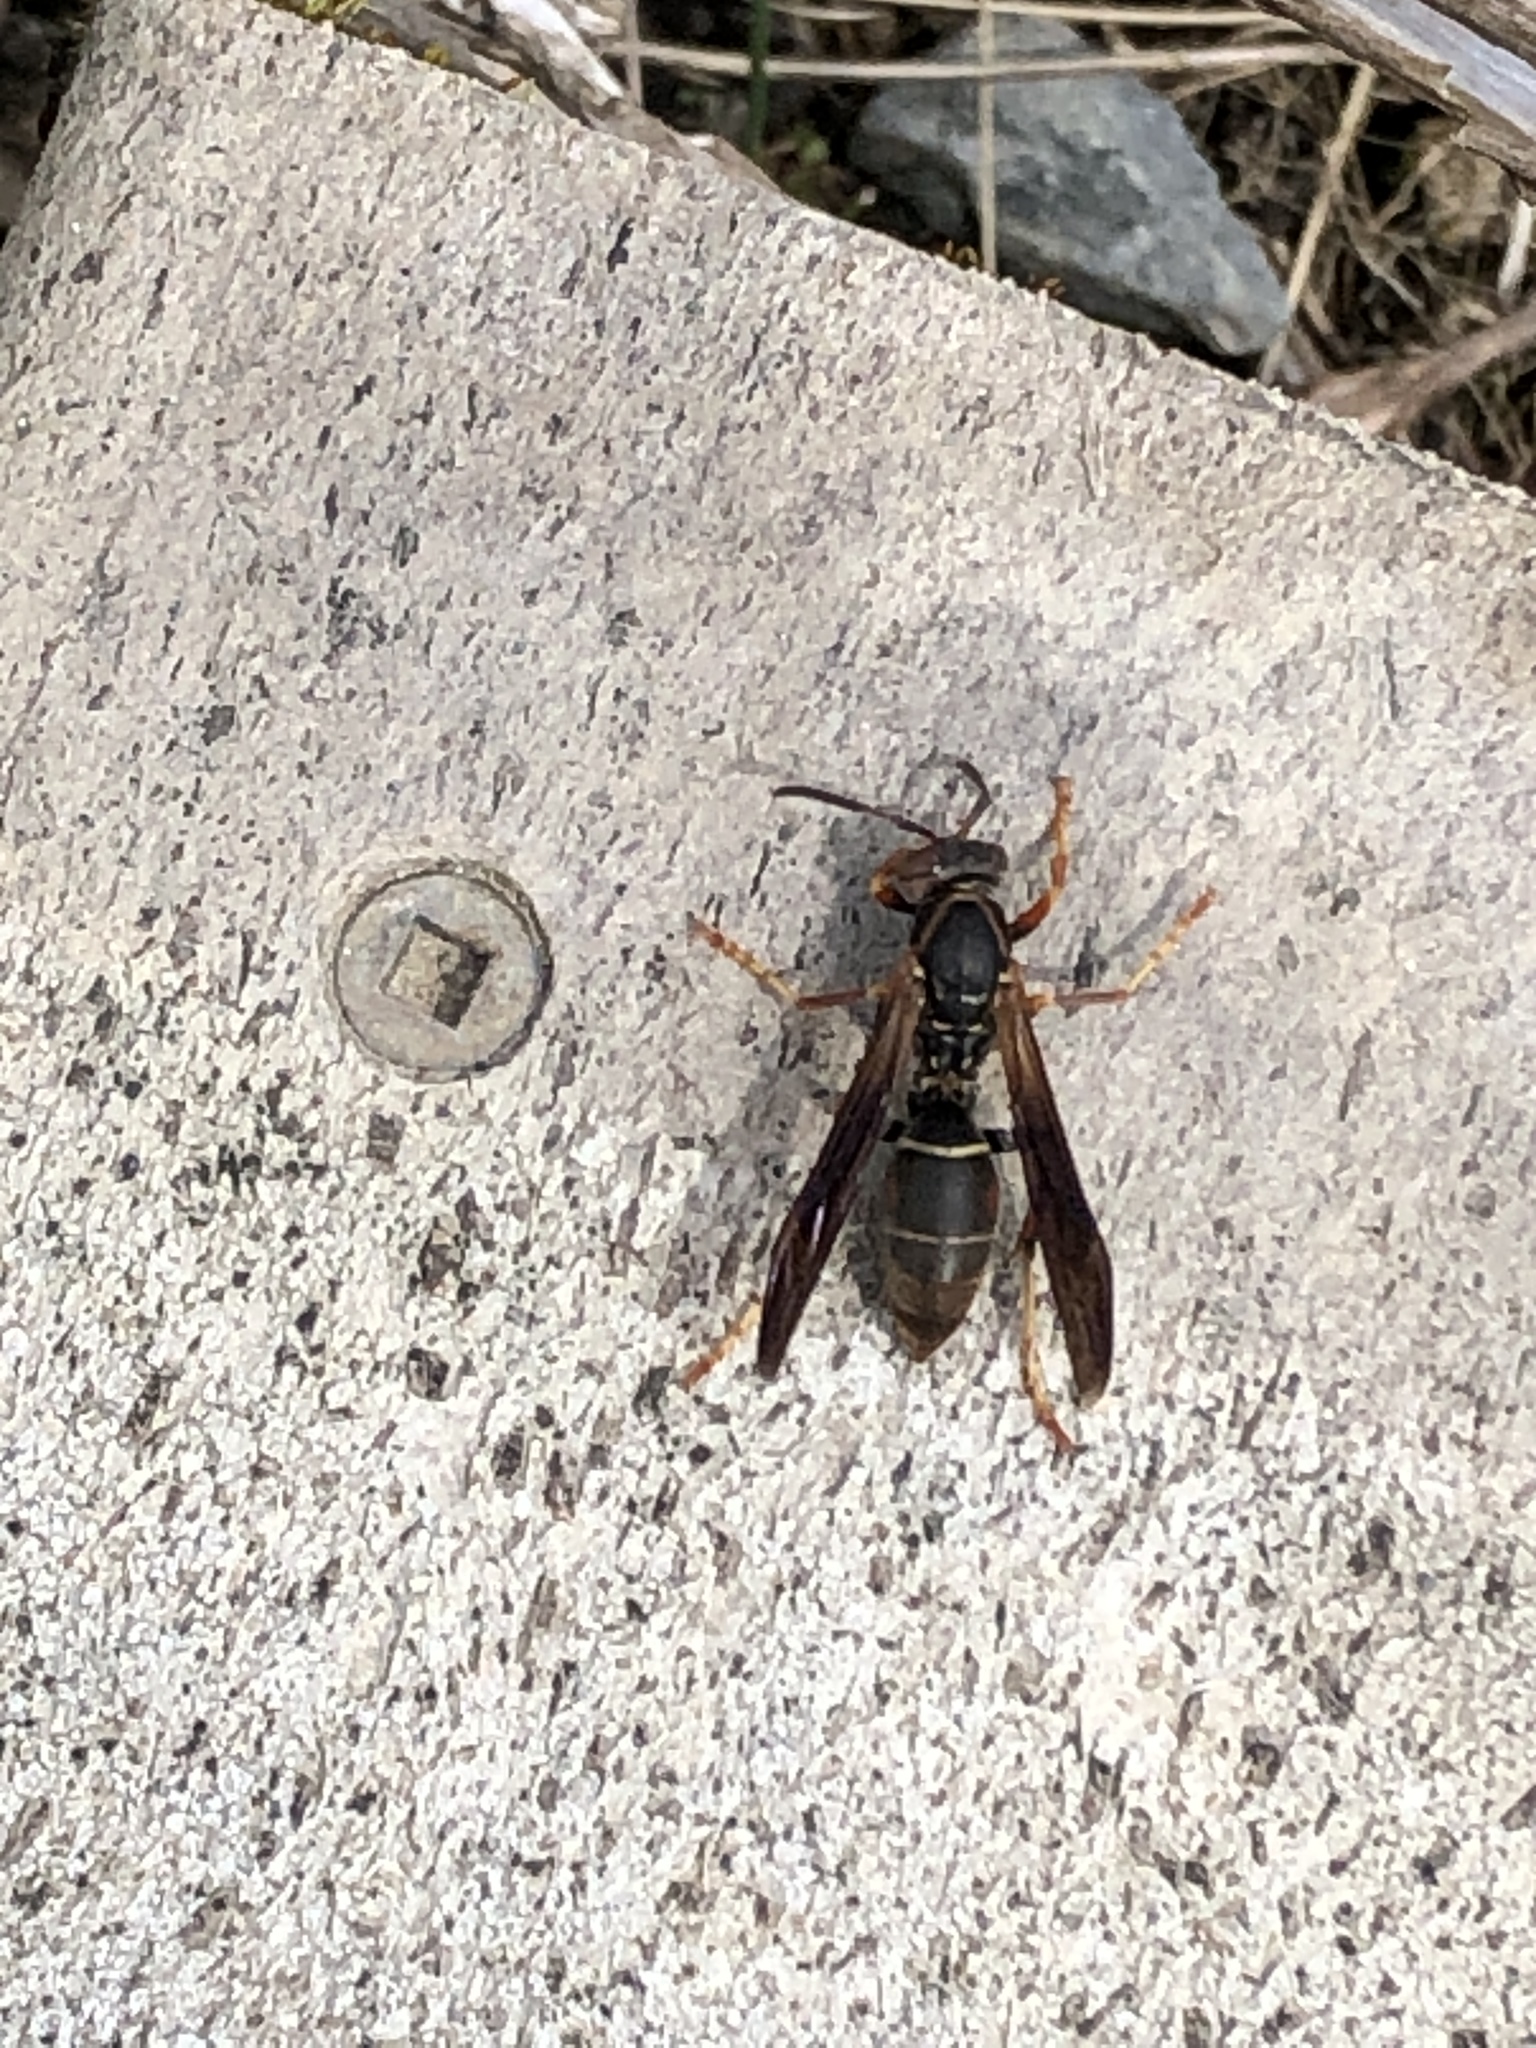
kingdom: Animalia
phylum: Arthropoda
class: Insecta
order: Hymenoptera
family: Eumenidae
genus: Polistes
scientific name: Polistes fuscatus
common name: Dark paper wasp
